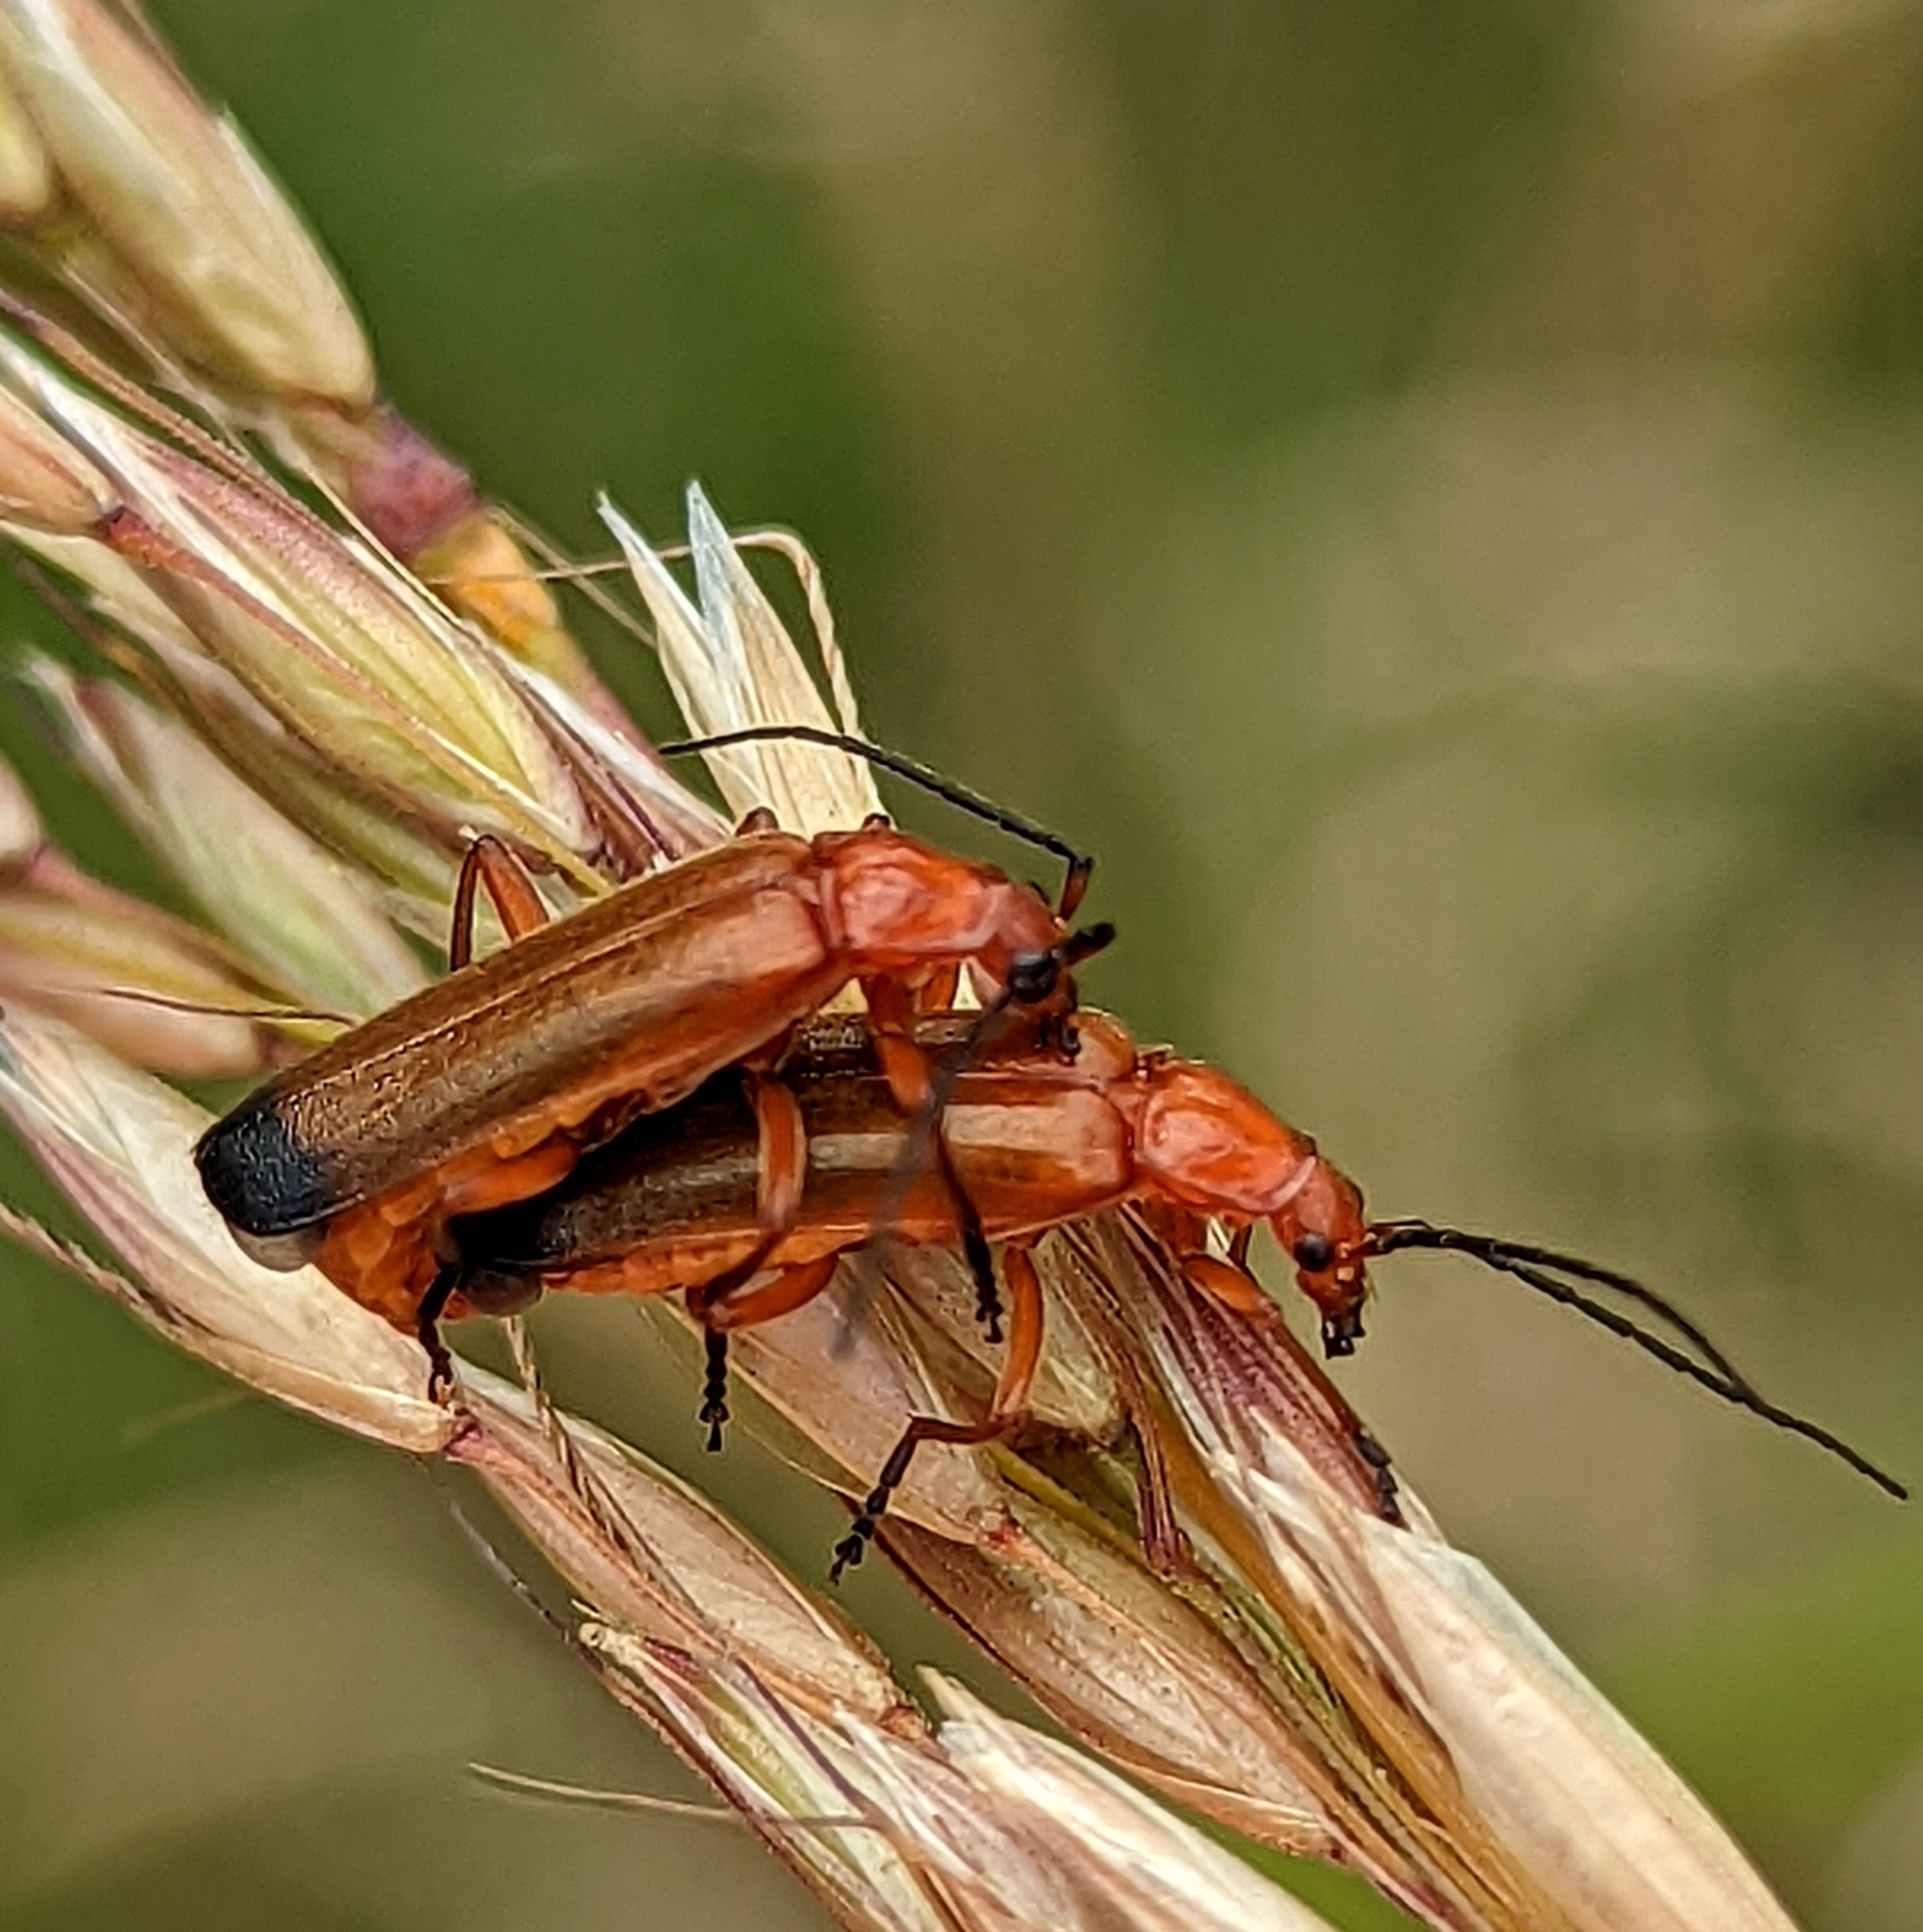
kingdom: Animalia
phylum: Arthropoda
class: Insecta
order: Coleoptera
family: Cantharidae
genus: Rhagonycha
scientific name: Rhagonycha fulva
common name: Common red soldier beetle
